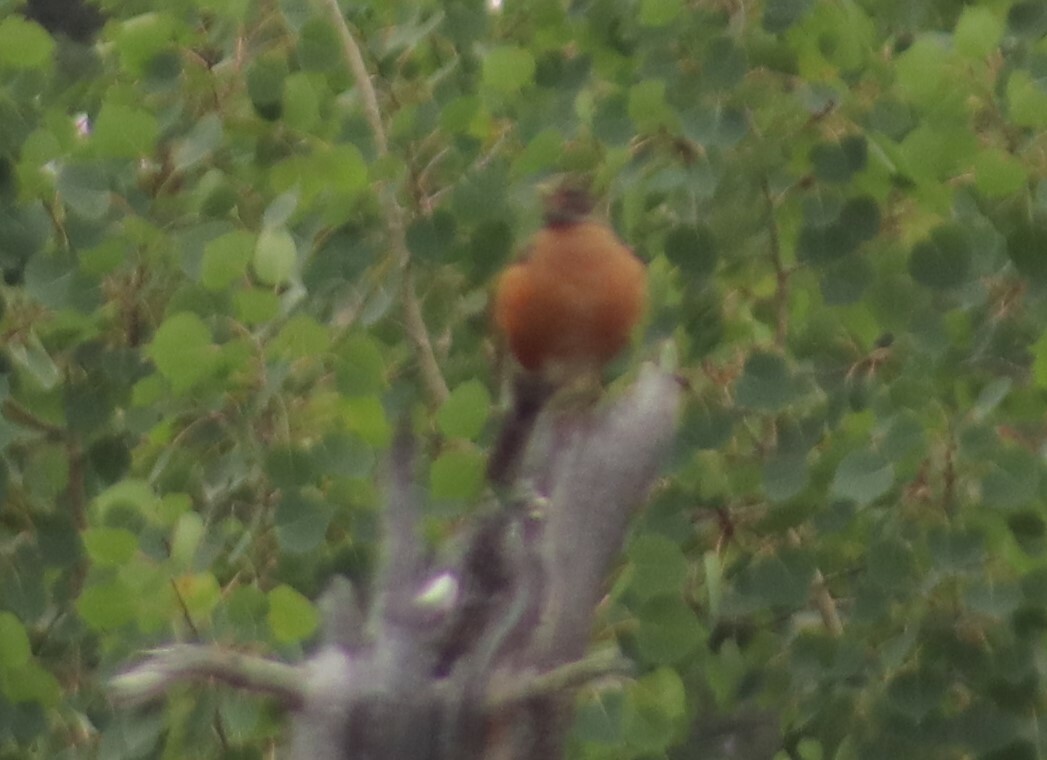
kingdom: Animalia
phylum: Chordata
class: Aves
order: Passeriformes
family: Turdidae
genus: Turdus
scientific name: Turdus migratorius
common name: American robin
